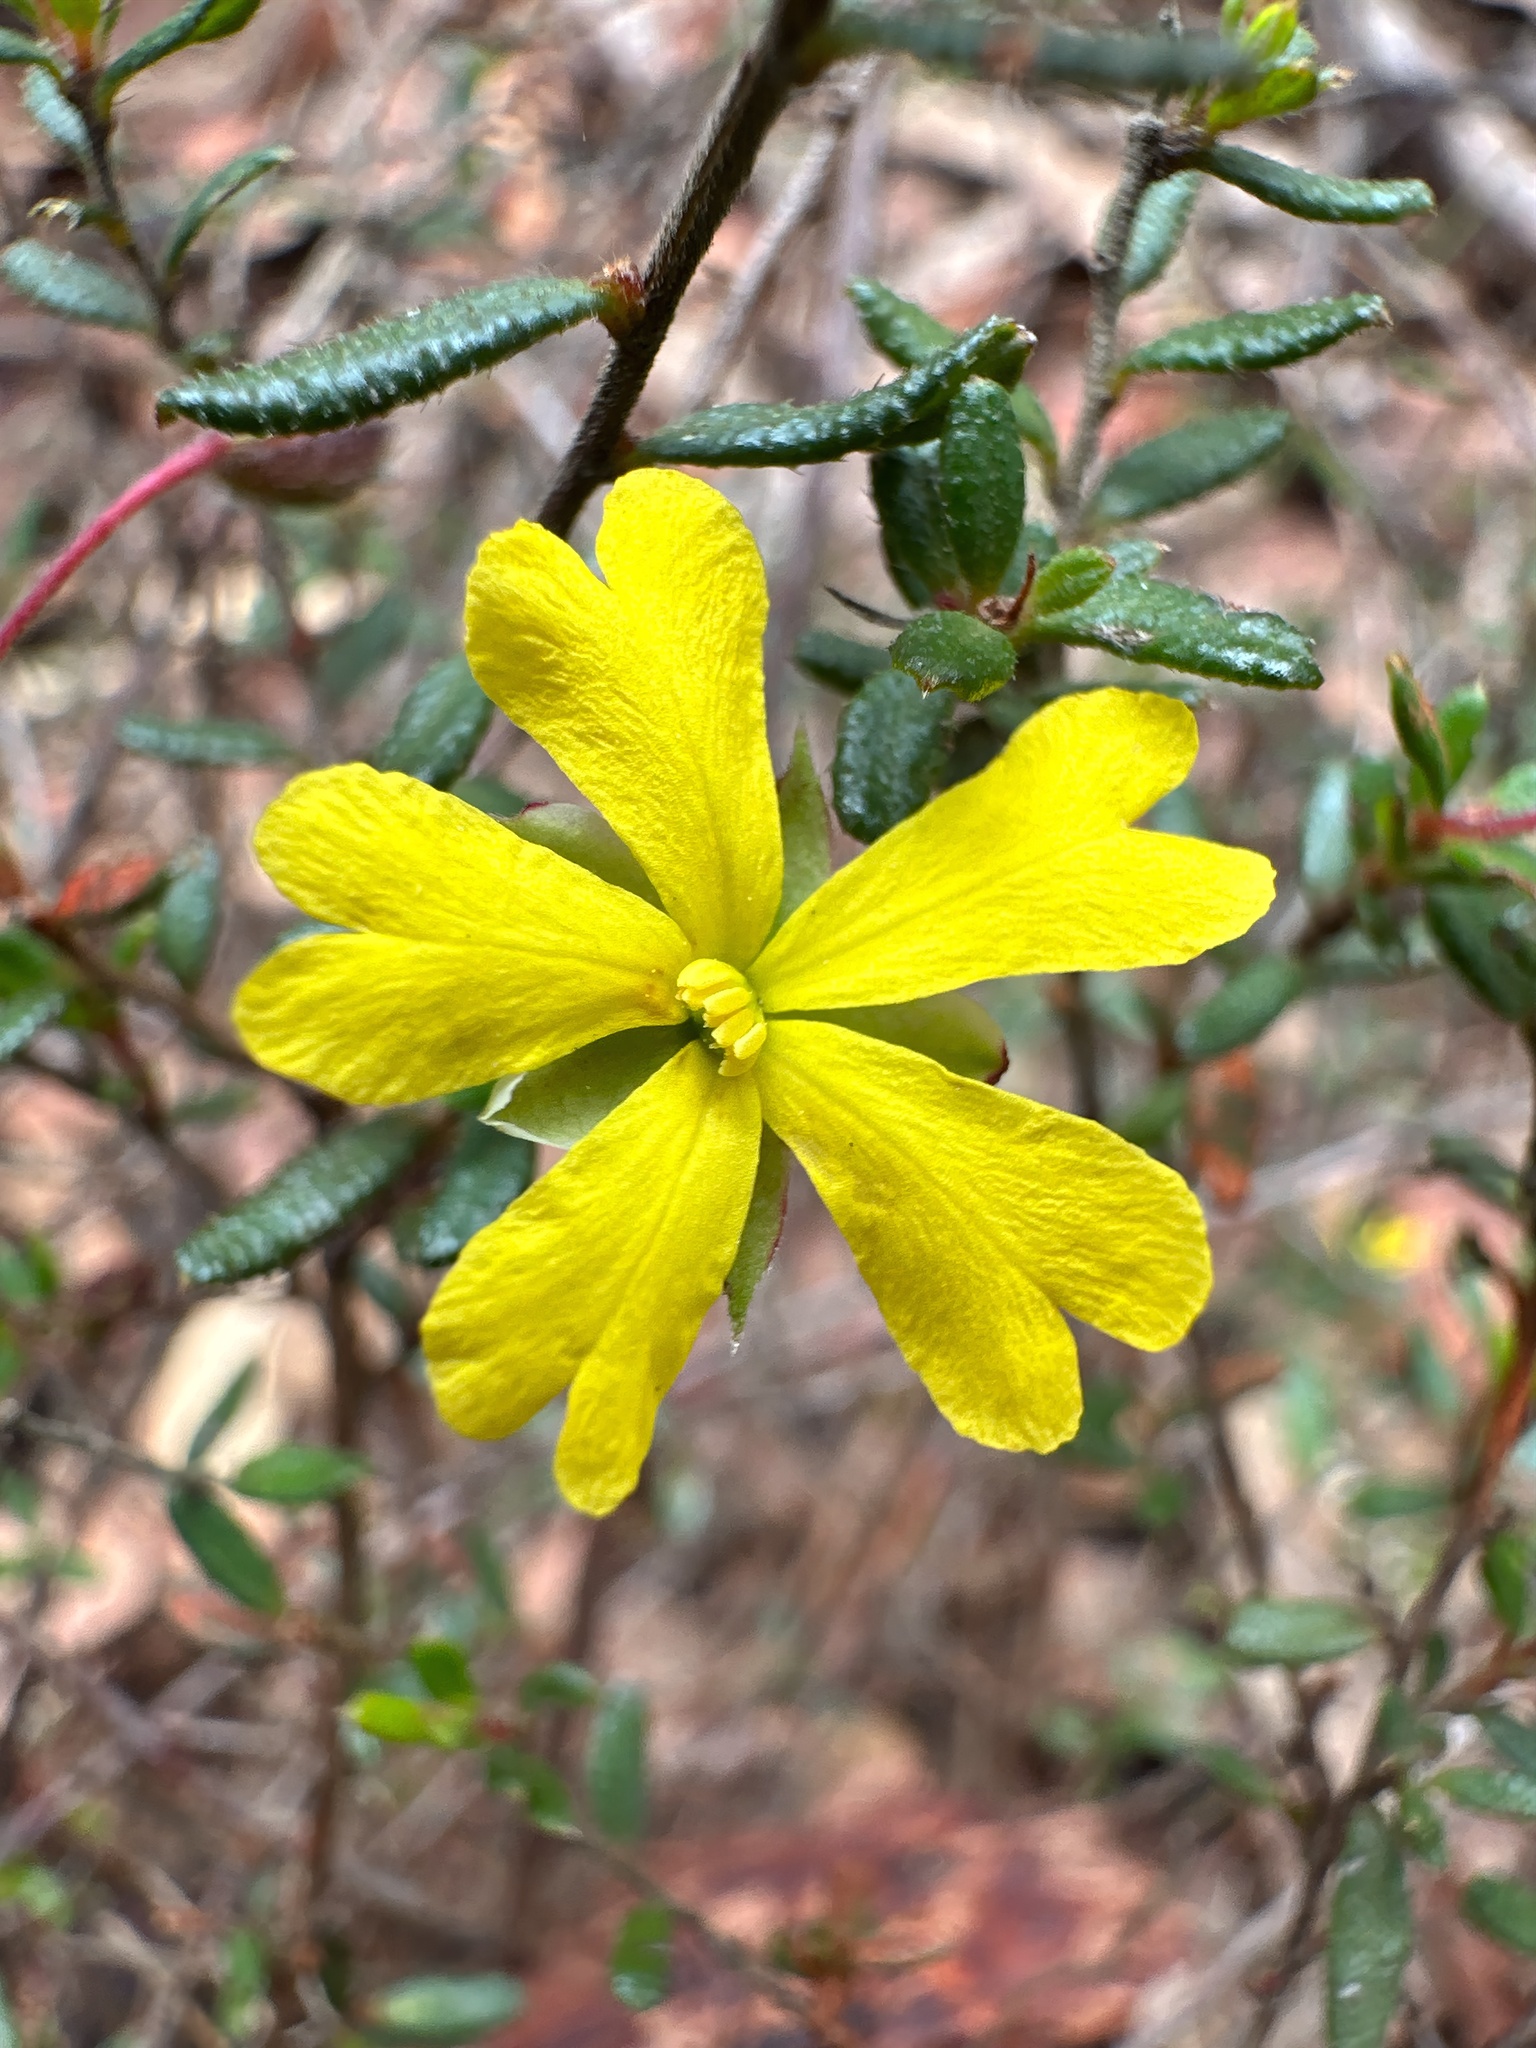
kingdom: Plantae
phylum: Tracheophyta
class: Magnoliopsida
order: Dilleniales
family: Dilleniaceae
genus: Hibbertia
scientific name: Hibbertia empetrifolia
